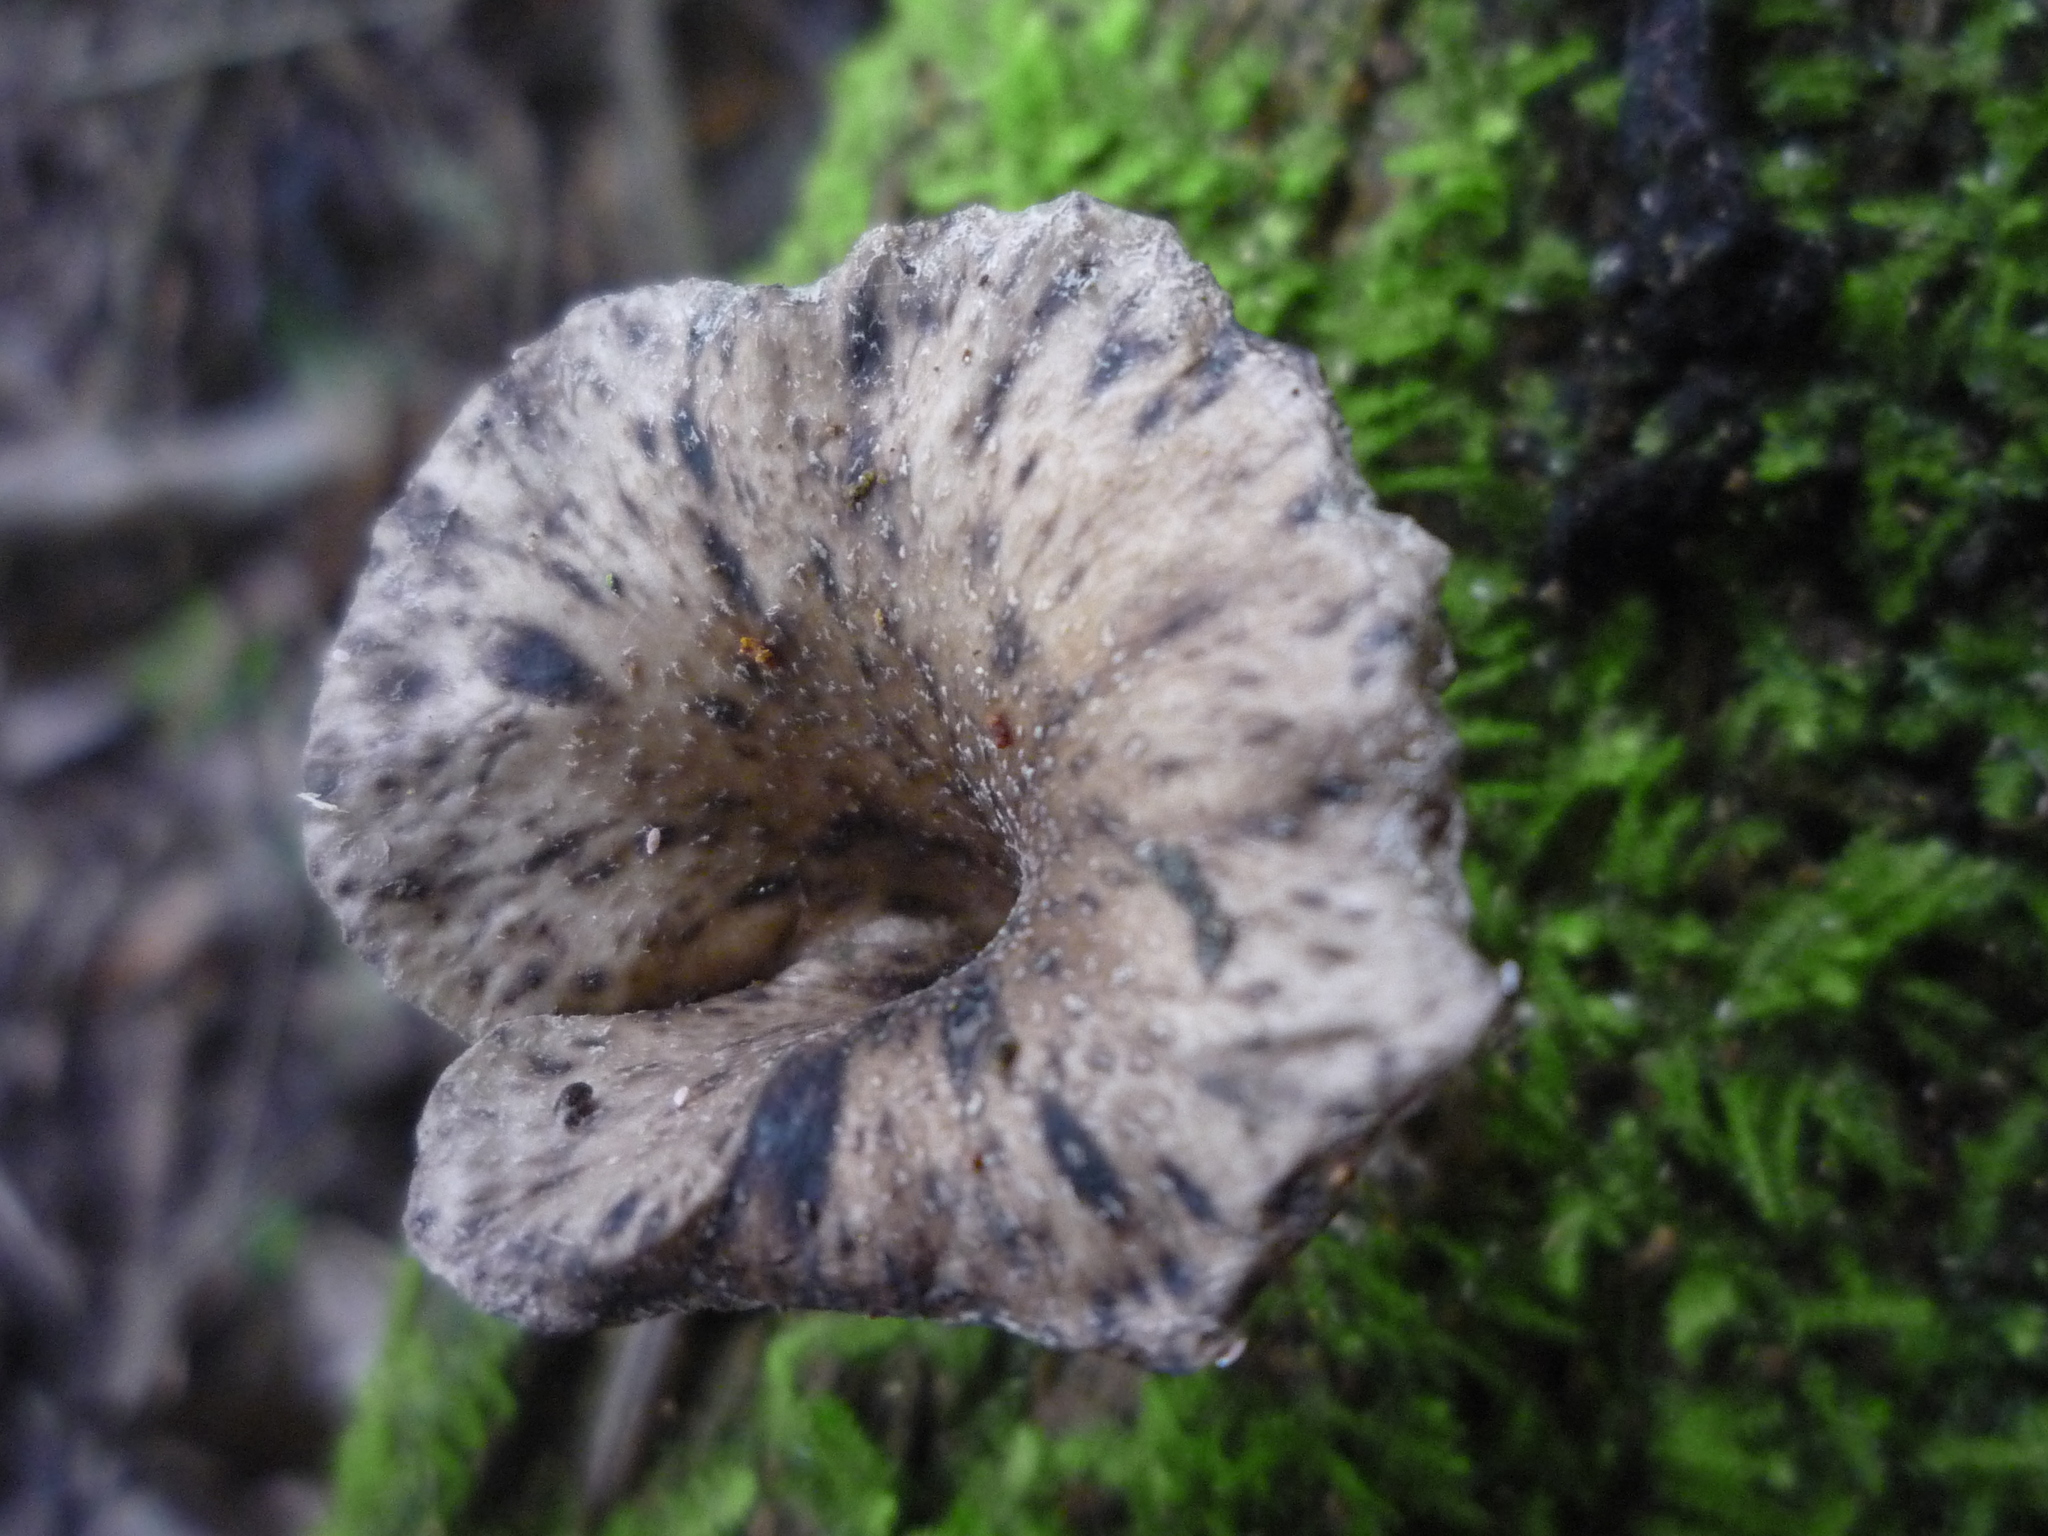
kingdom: Fungi
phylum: Basidiomycota
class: Agaricomycetes
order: Agaricales
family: Pleurotaceae
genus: Hohenbuehelia
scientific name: Hohenbuehelia
